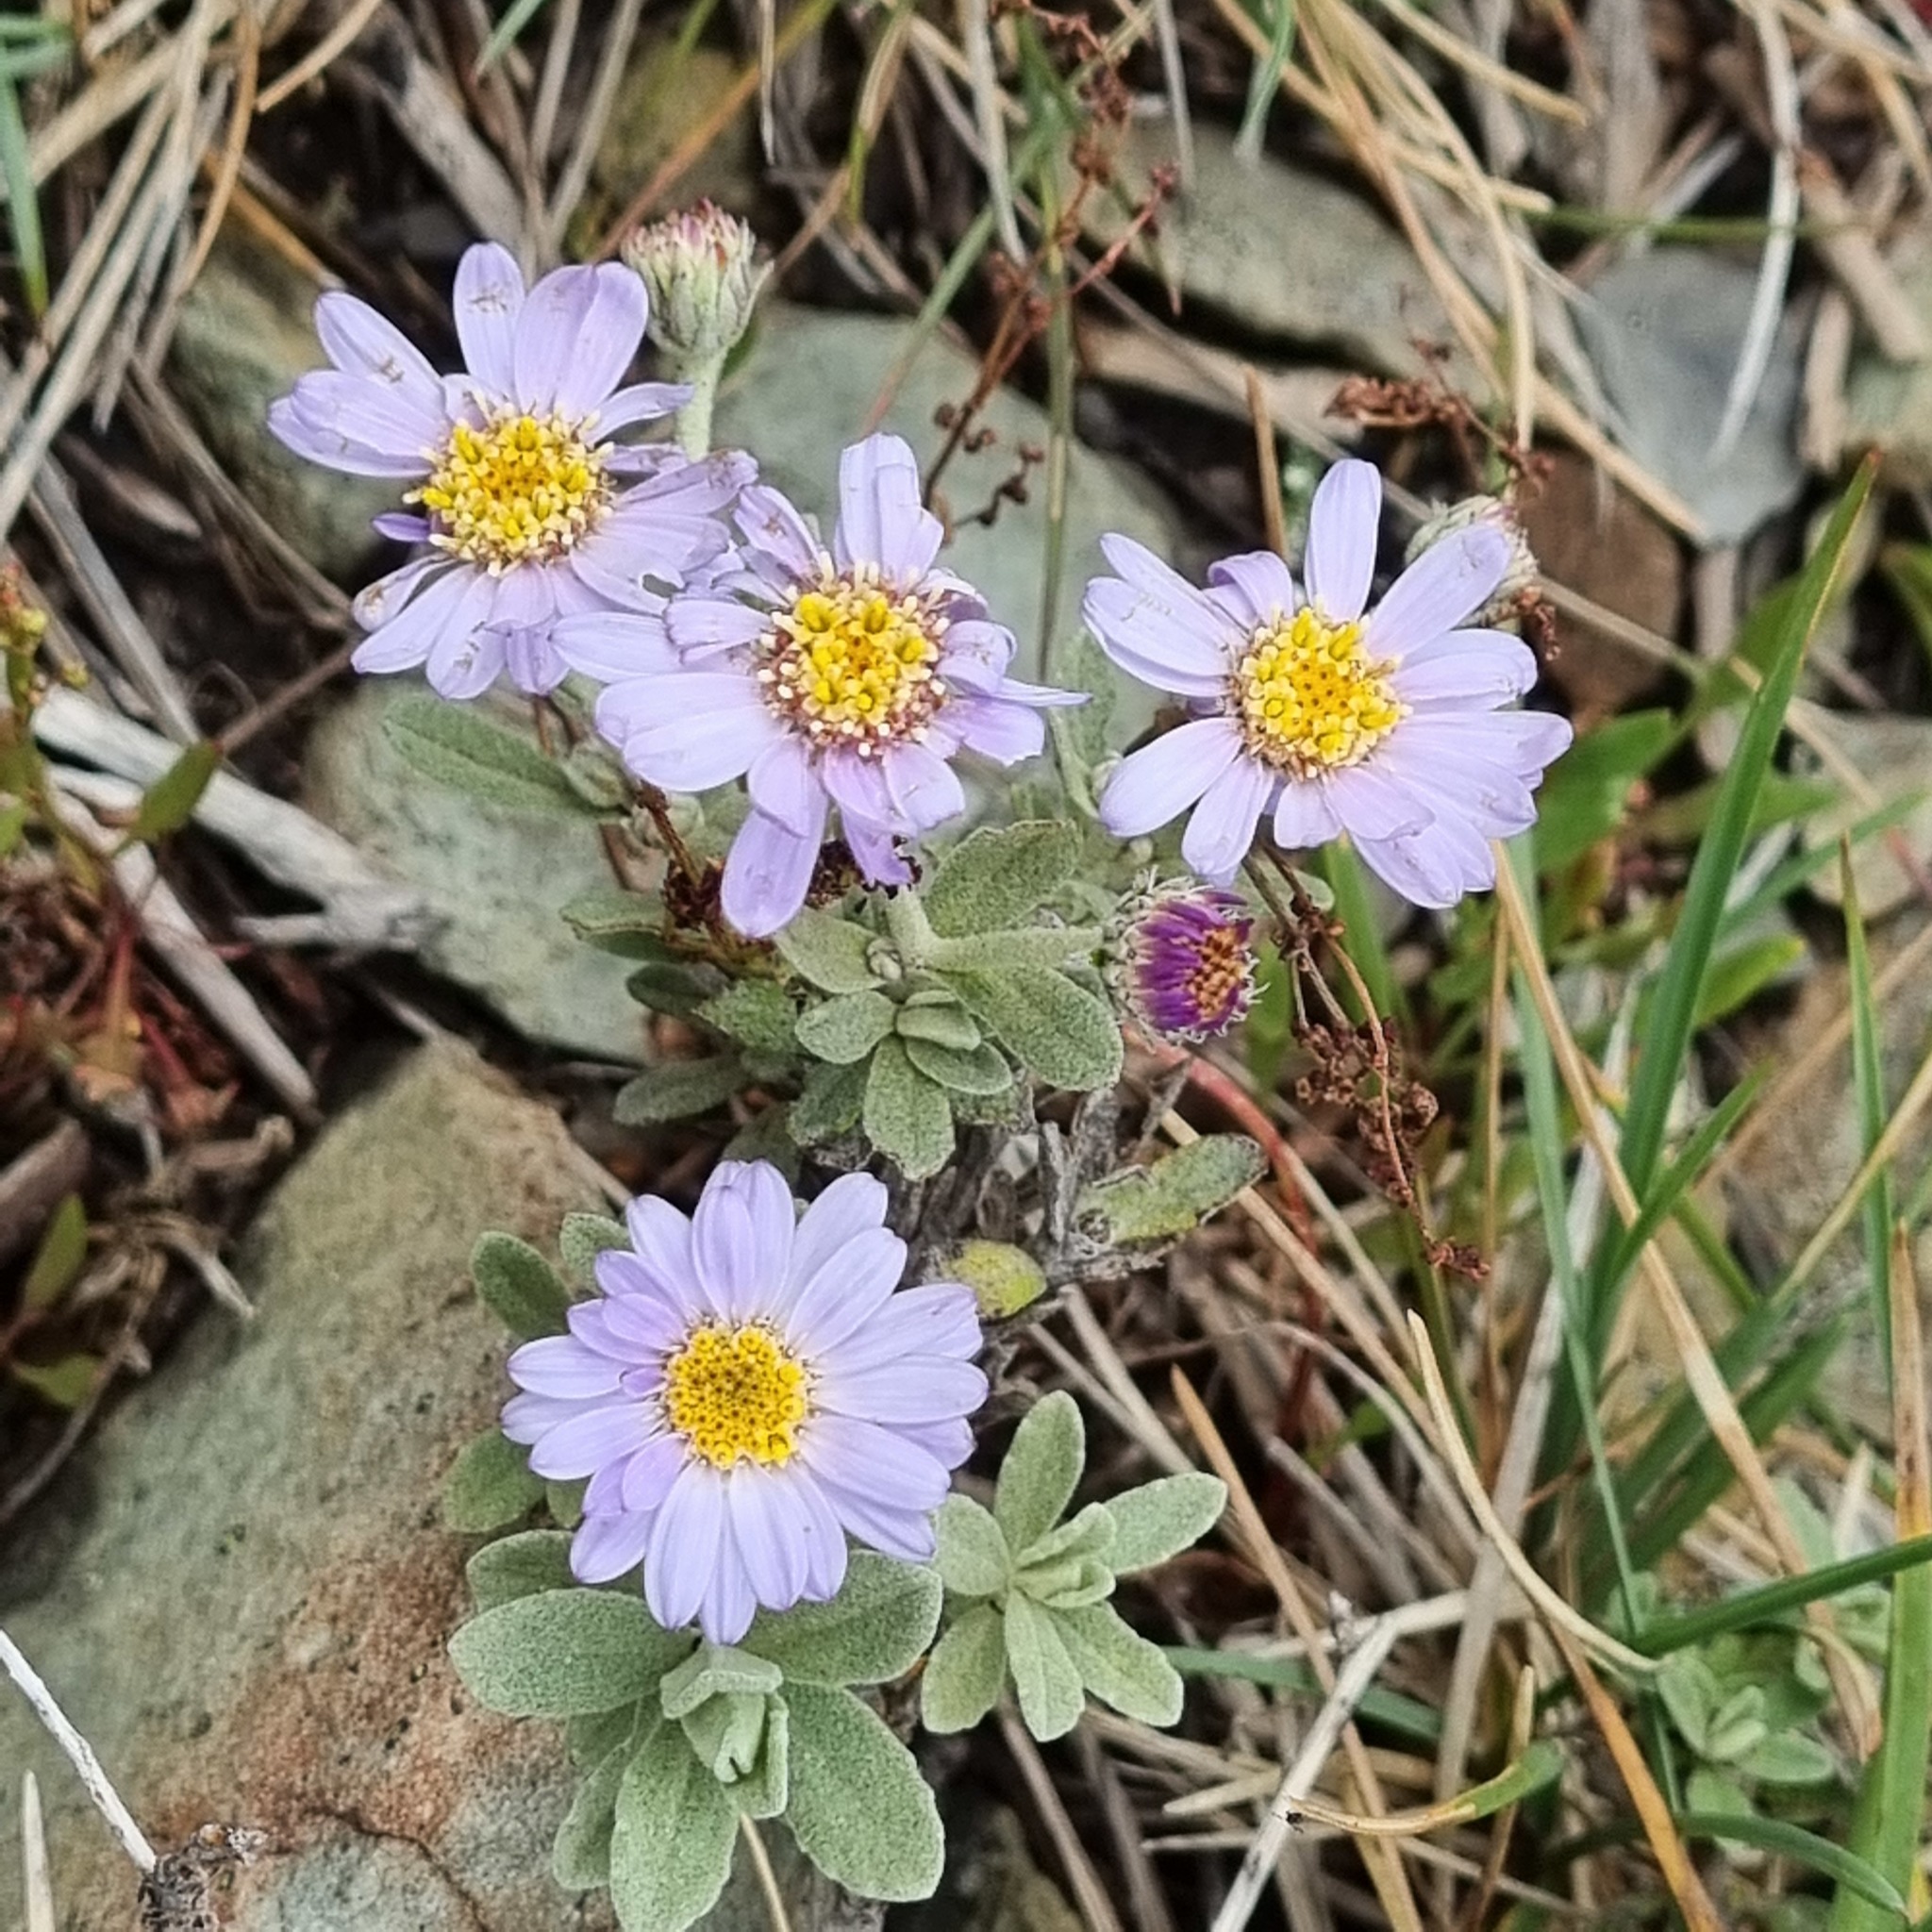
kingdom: Plantae
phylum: Tracheophyta
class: Magnoliopsida
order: Asterales
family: Asteraceae
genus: Olearia
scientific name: Olearia frostii
